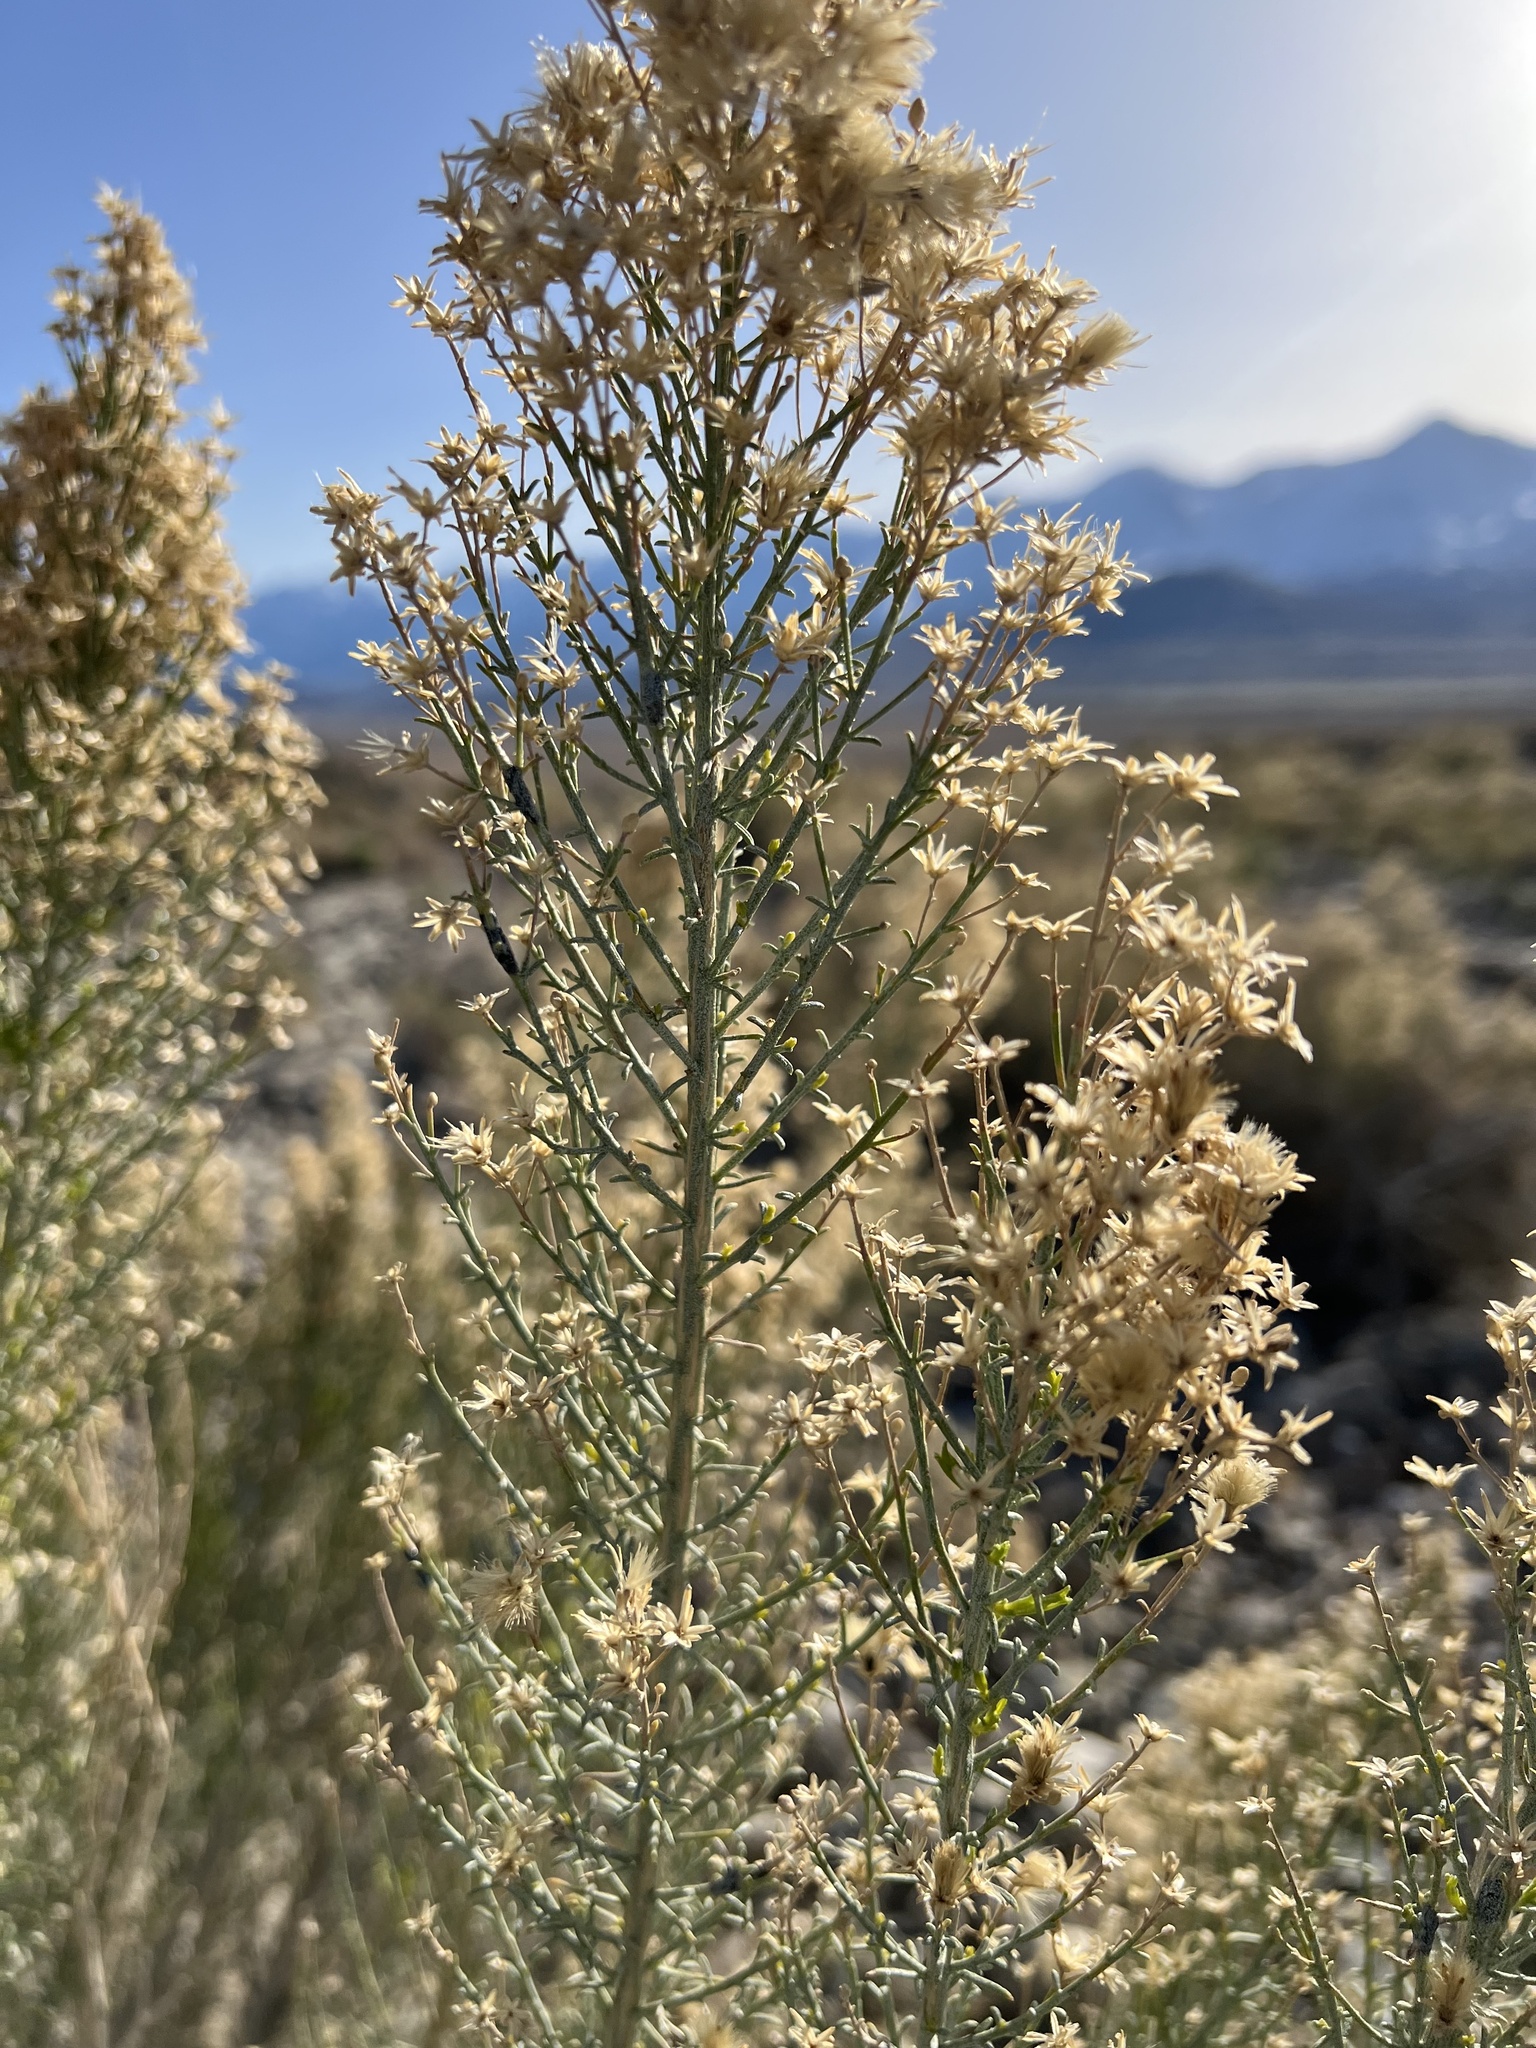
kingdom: Plantae
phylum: Tracheophyta
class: Magnoliopsida
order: Asterales
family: Asteraceae
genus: Ericameria
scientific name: Ericameria paniculata
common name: Punctate rabbitbrush
